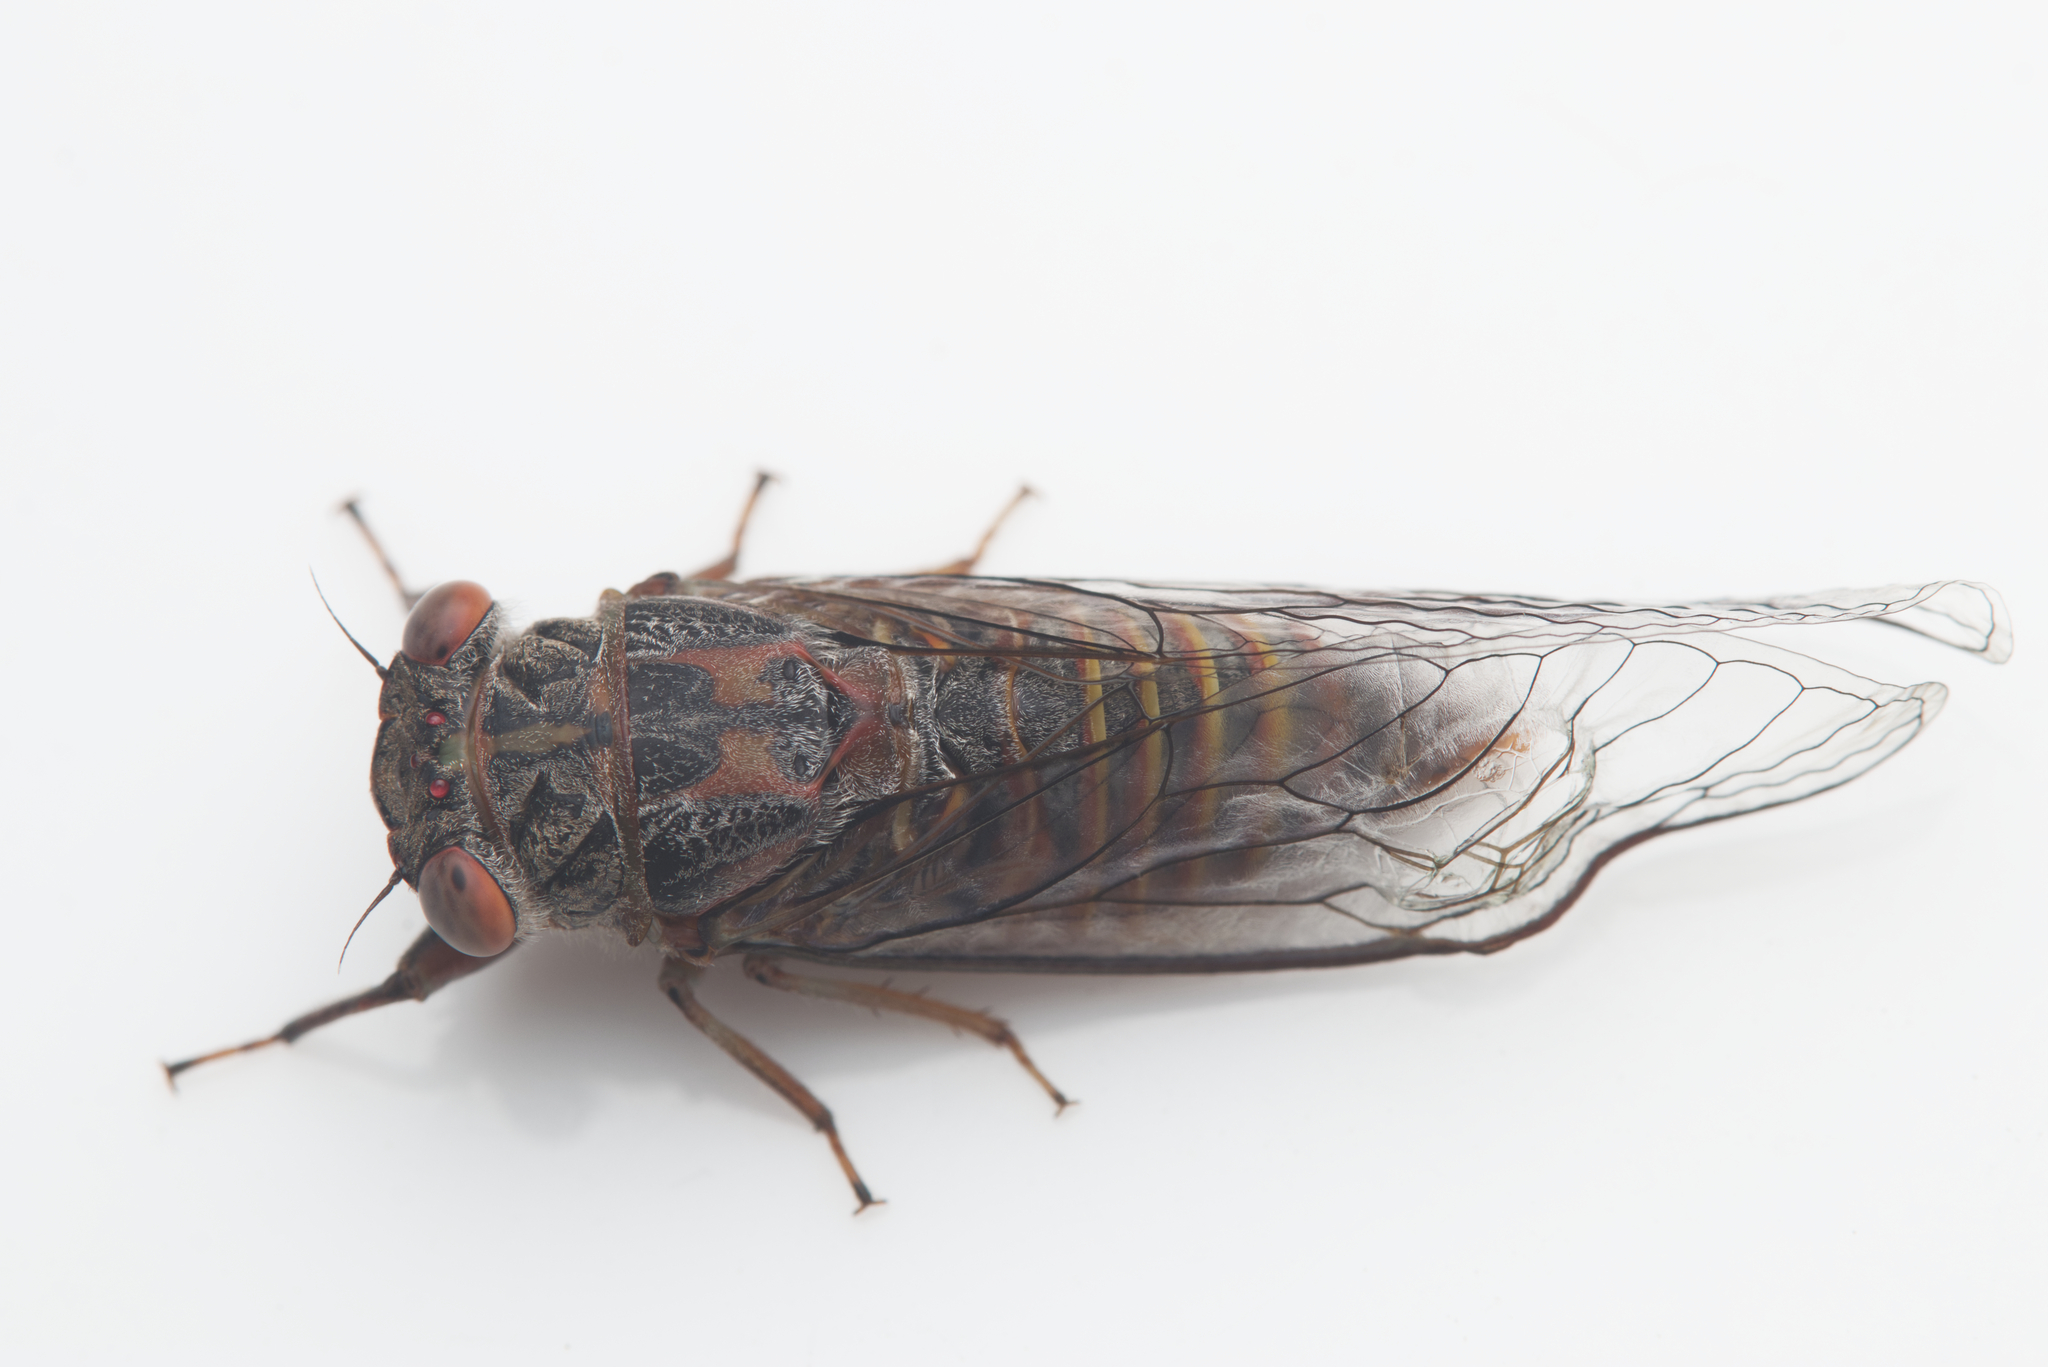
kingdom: Animalia
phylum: Arthropoda
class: Insecta
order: Hemiptera
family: Cicadidae
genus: Palapsalta
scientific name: Palapsalta circumdata
